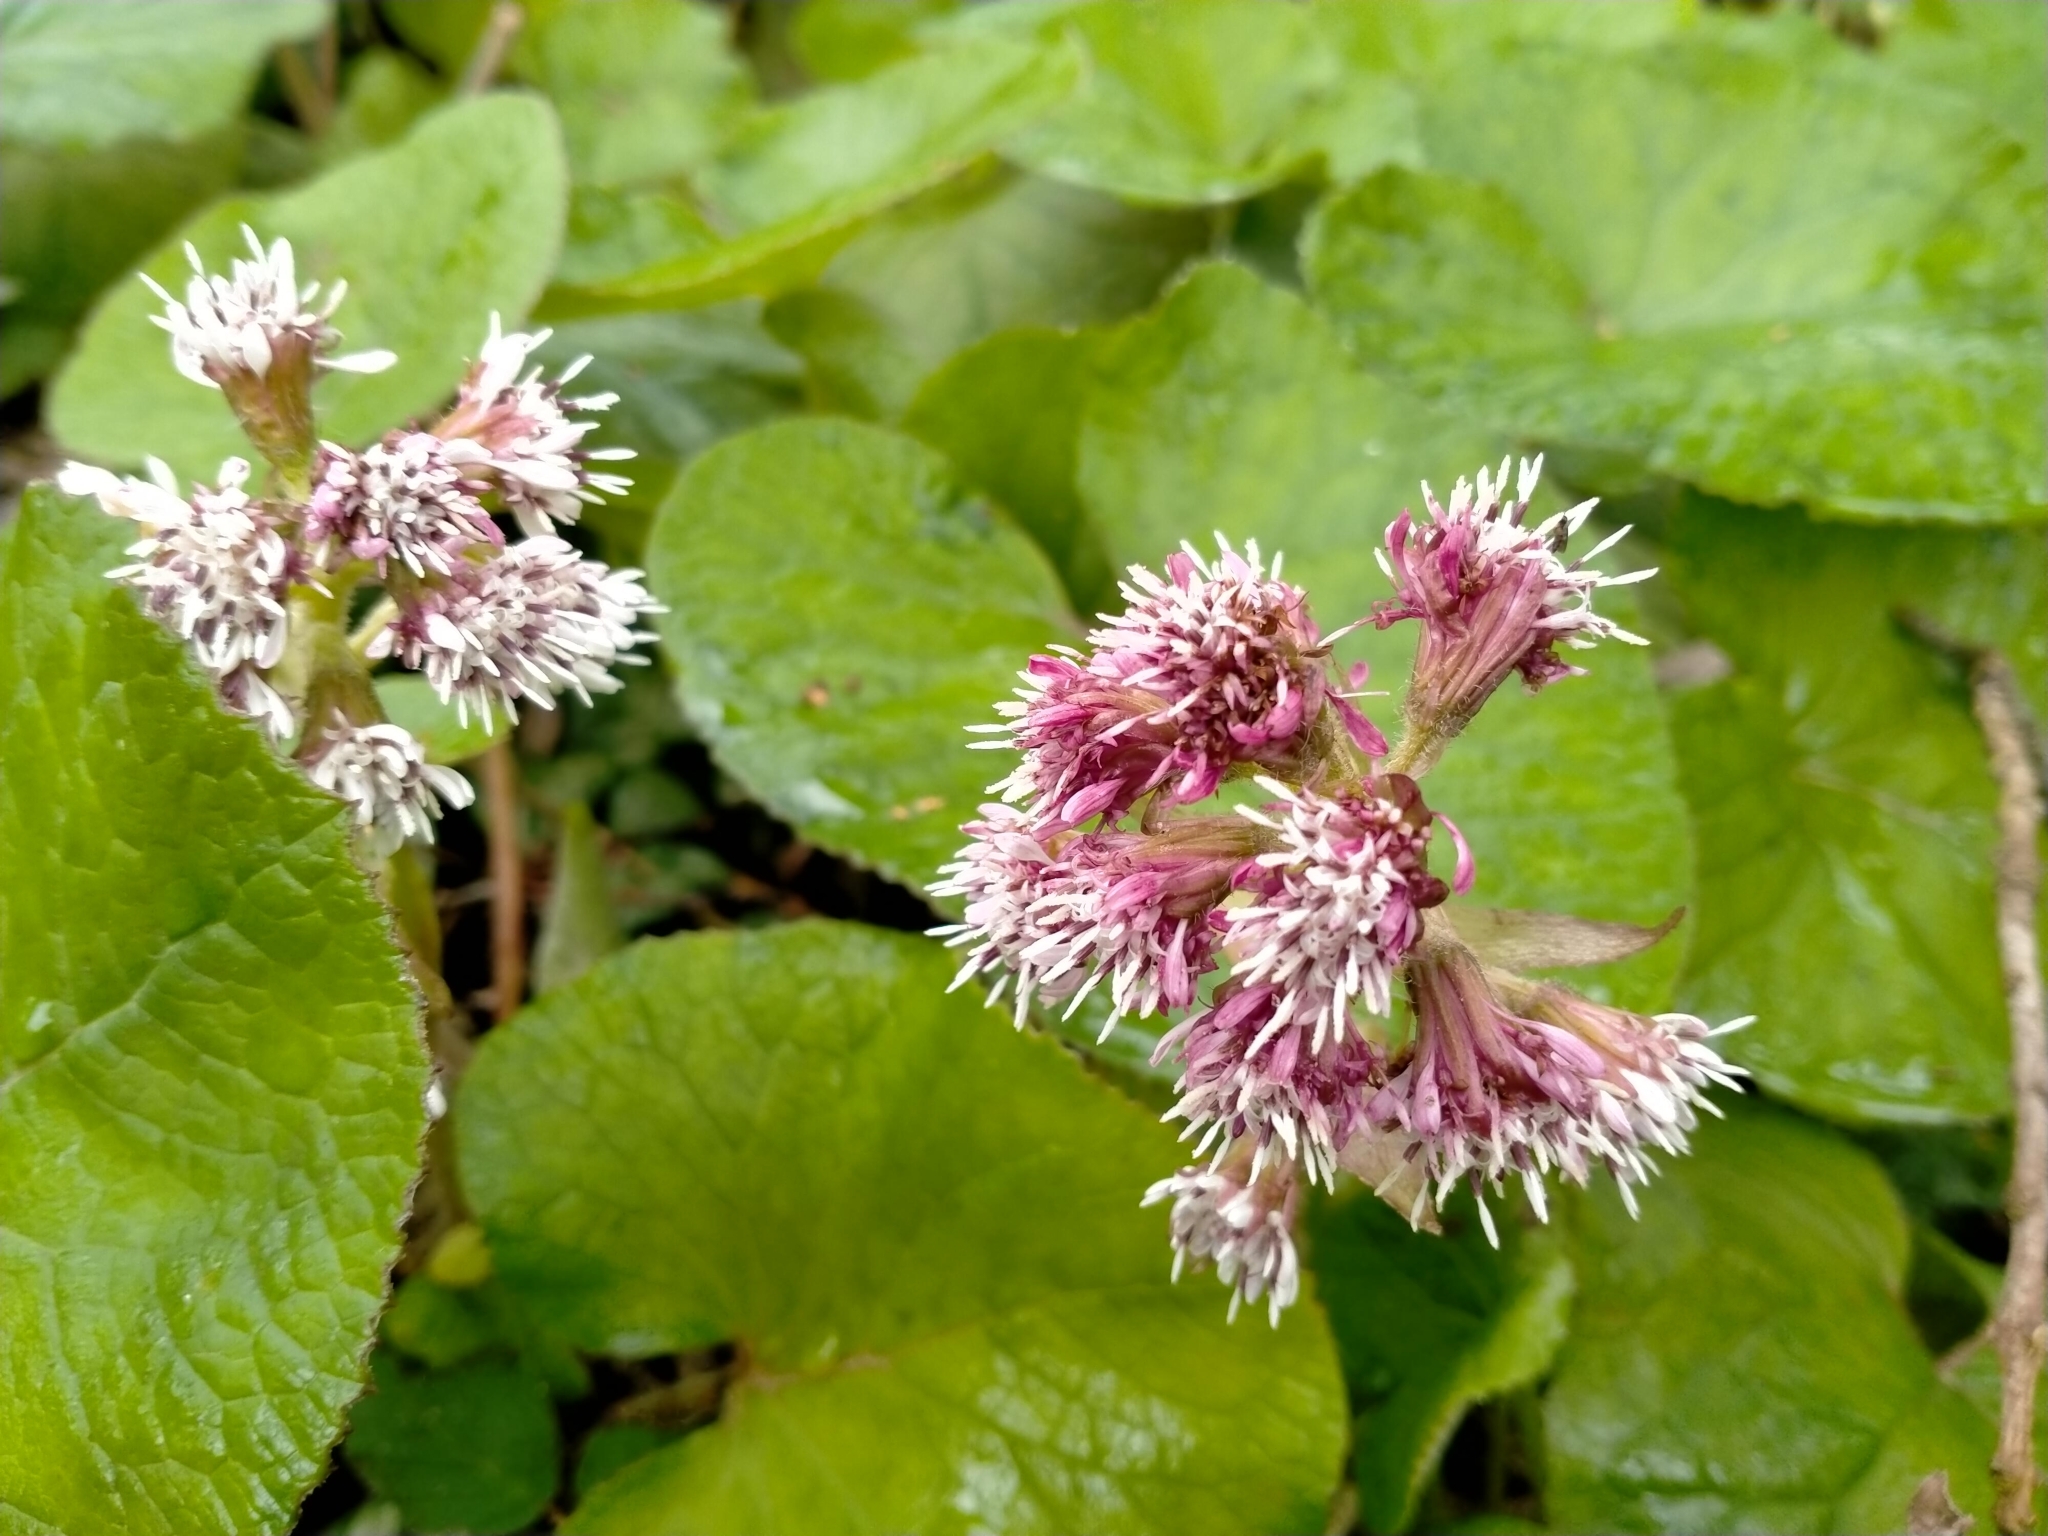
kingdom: Plantae
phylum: Tracheophyta
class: Magnoliopsida
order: Asterales
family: Asteraceae
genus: Petasites
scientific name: Petasites pyrenaicus
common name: Winter heliotrope
